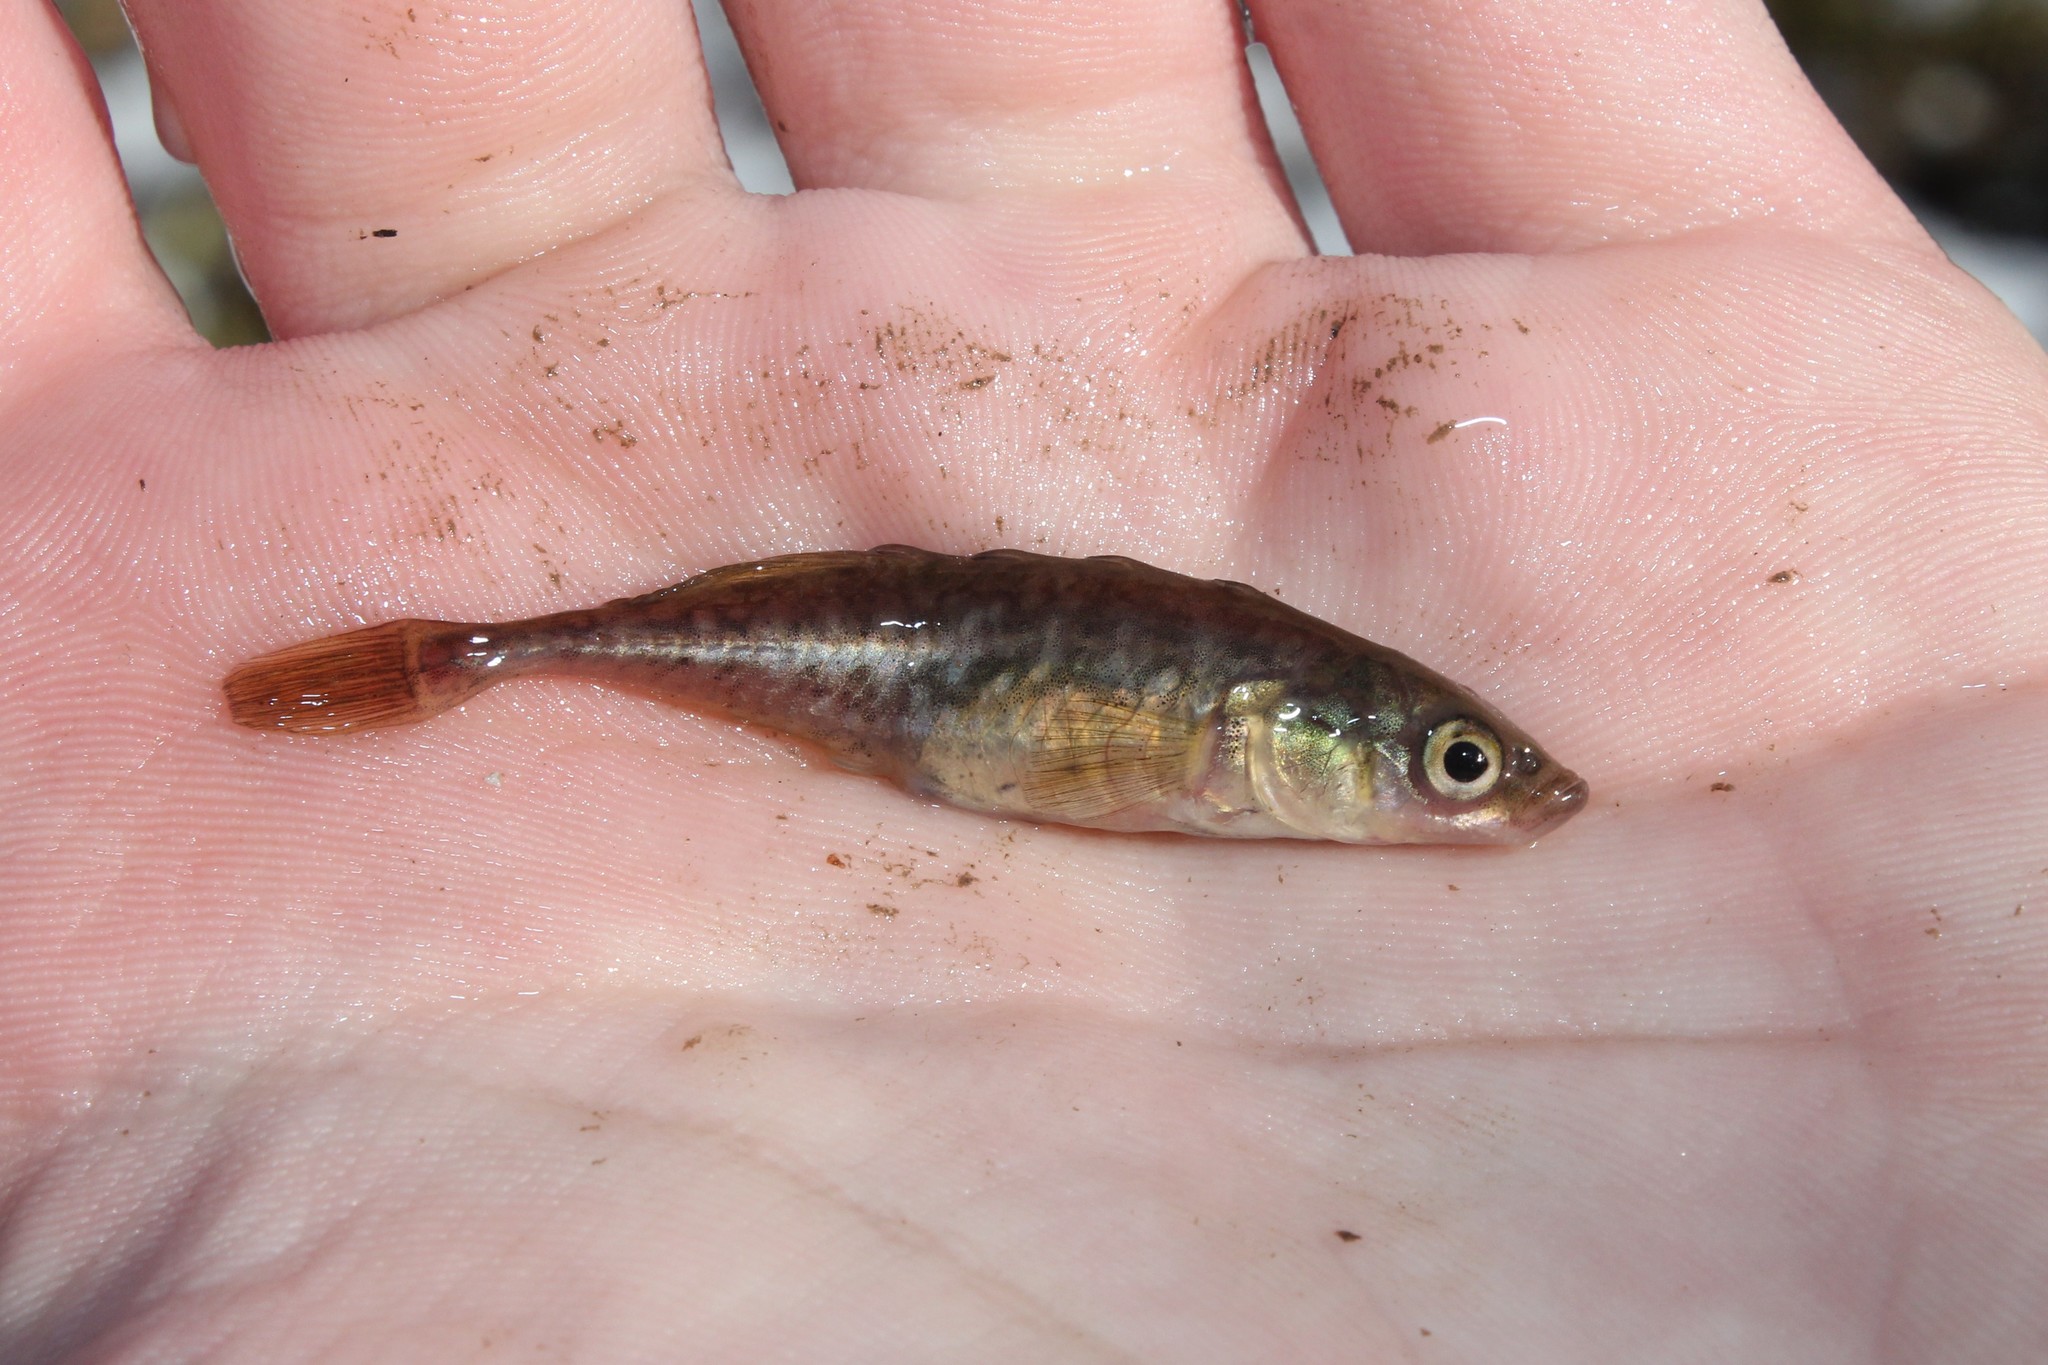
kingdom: Animalia
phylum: Chordata
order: Gasterosteiformes
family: Gasterosteidae
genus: Culaea
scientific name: Culaea inconstans
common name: Brook stickleback
